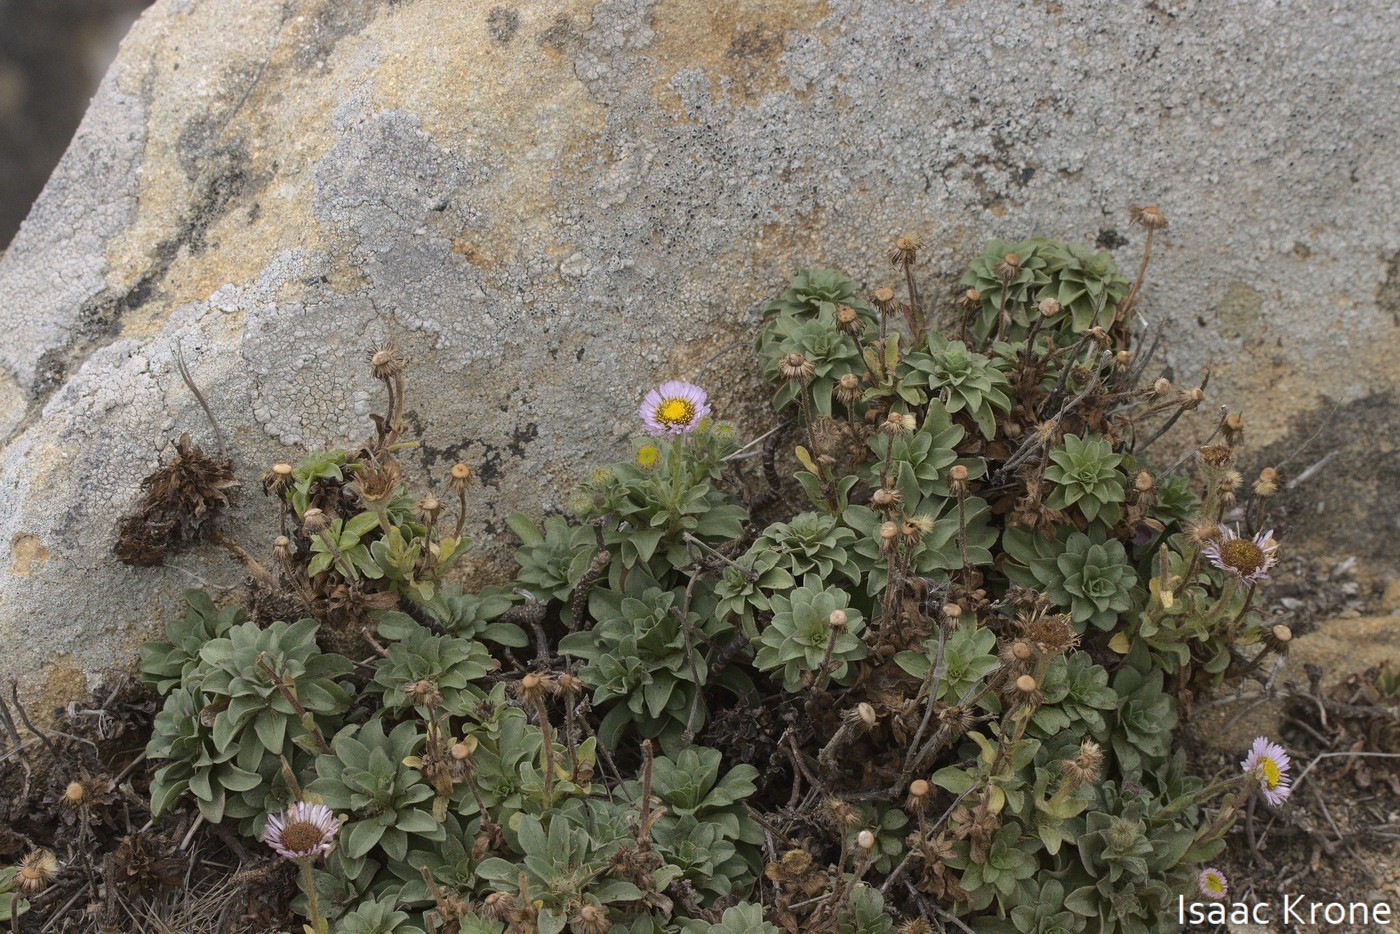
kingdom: Plantae
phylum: Tracheophyta
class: Magnoliopsida
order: Asterales
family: Asteraceae
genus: Erigeron
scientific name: Erigeron glaucus
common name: Seaside daisy
